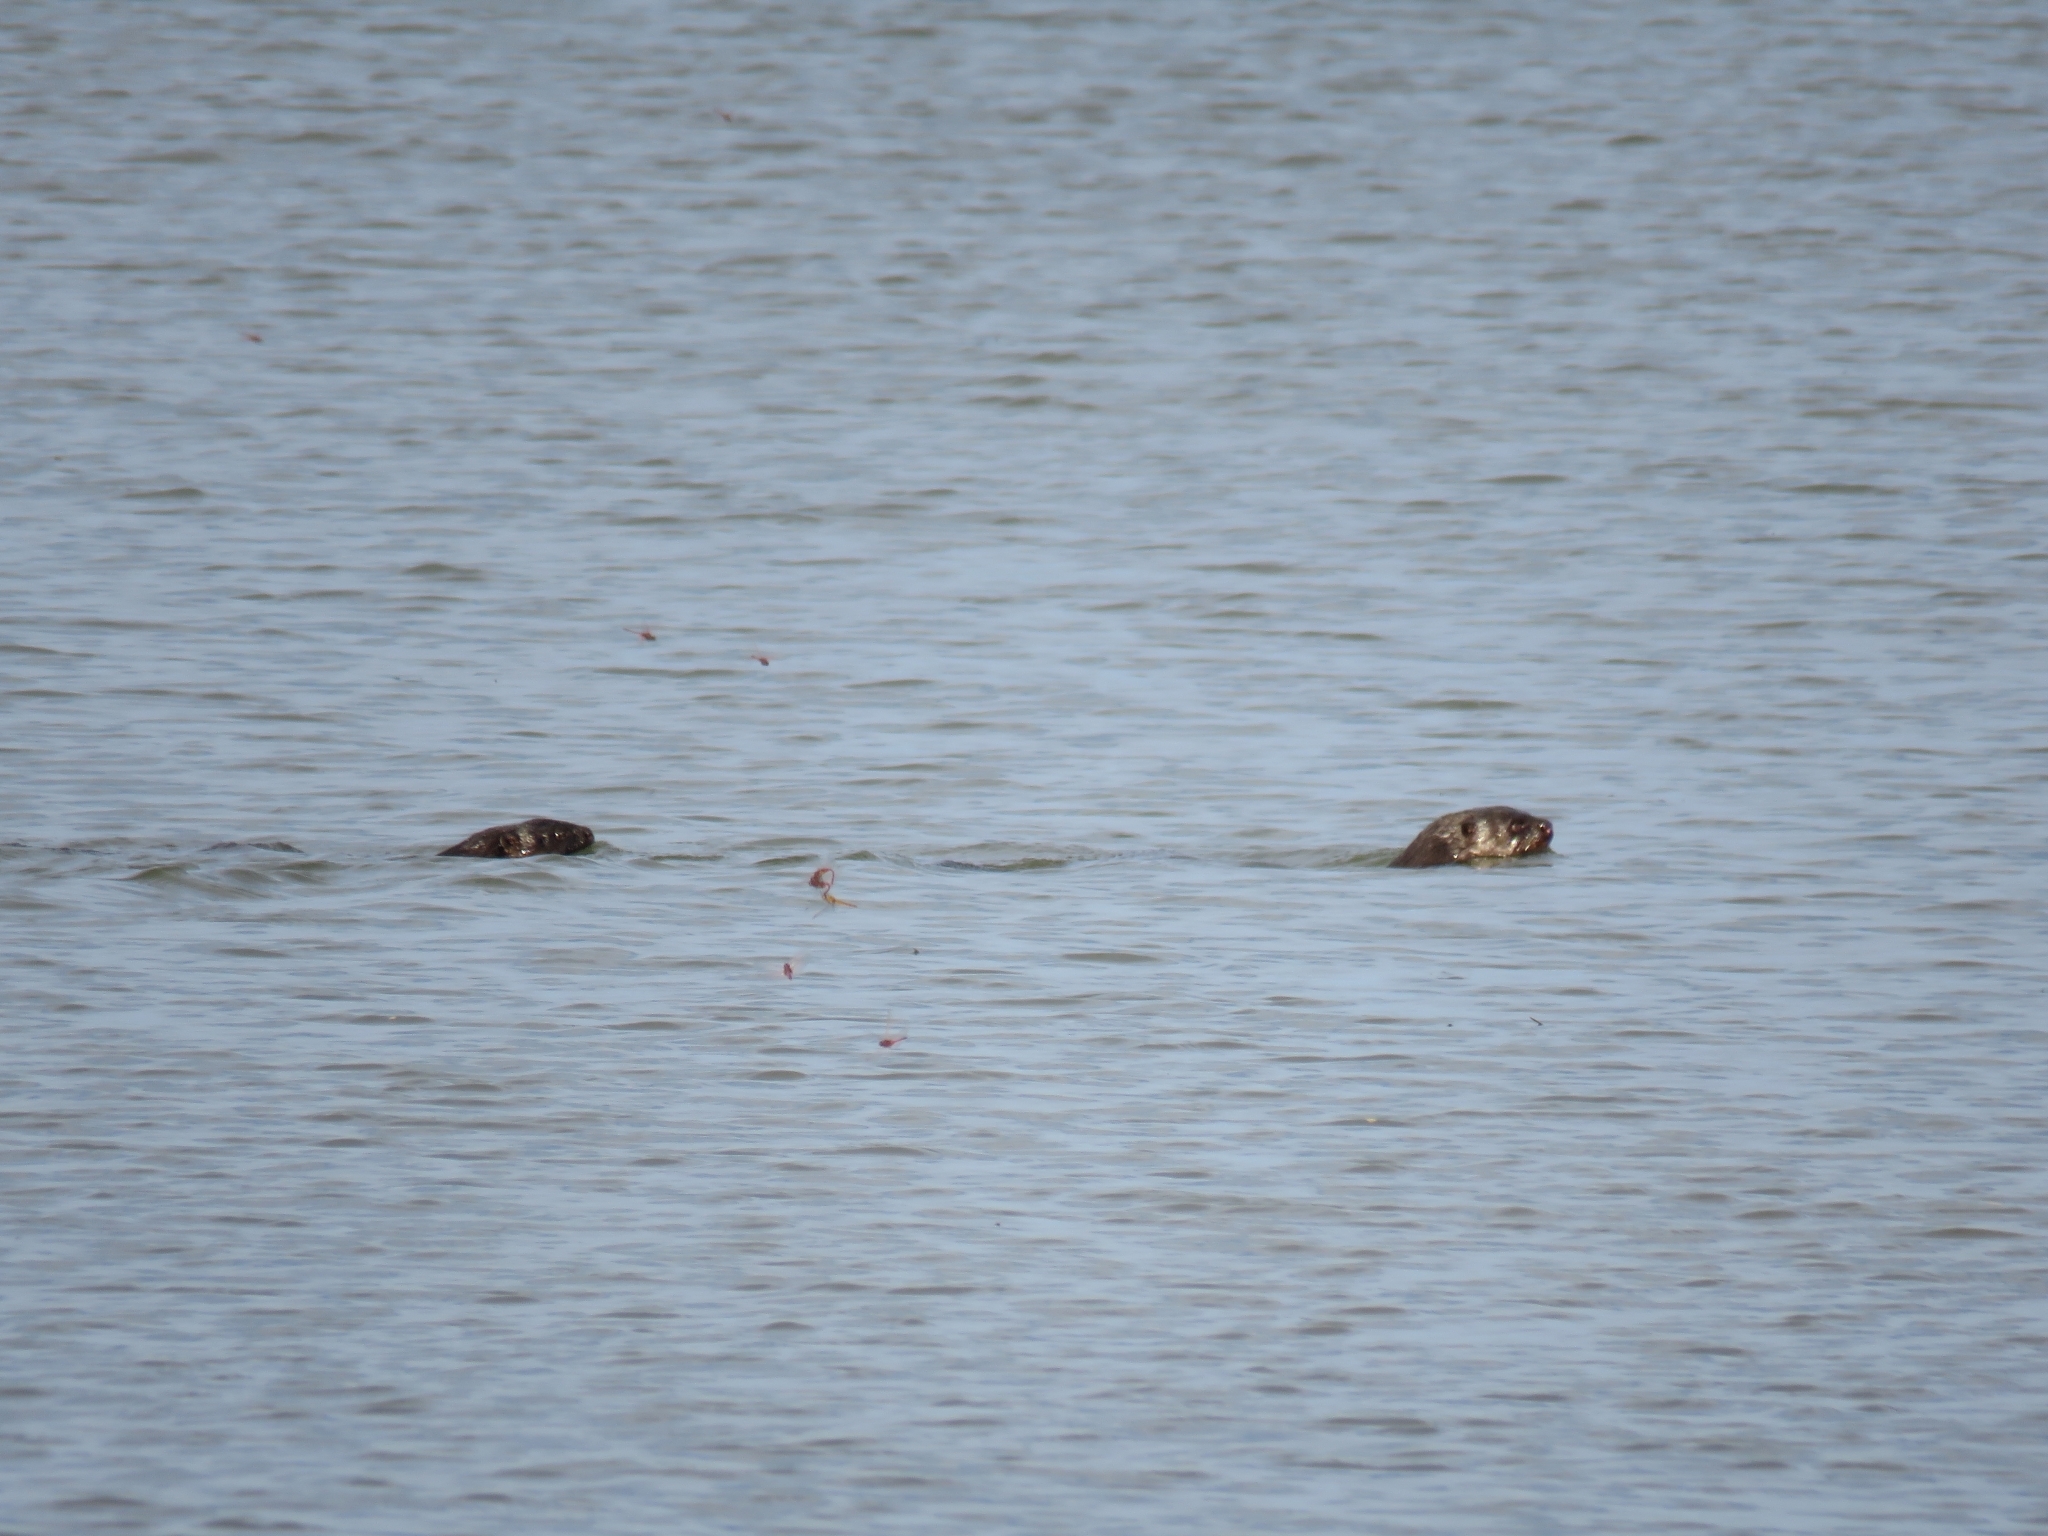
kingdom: Animalia
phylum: Chordata
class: Mammalia
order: Carnivora
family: Mustelidae
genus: Hydrictis
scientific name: Hydrictis maculicollis
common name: Spotted-necked otter
